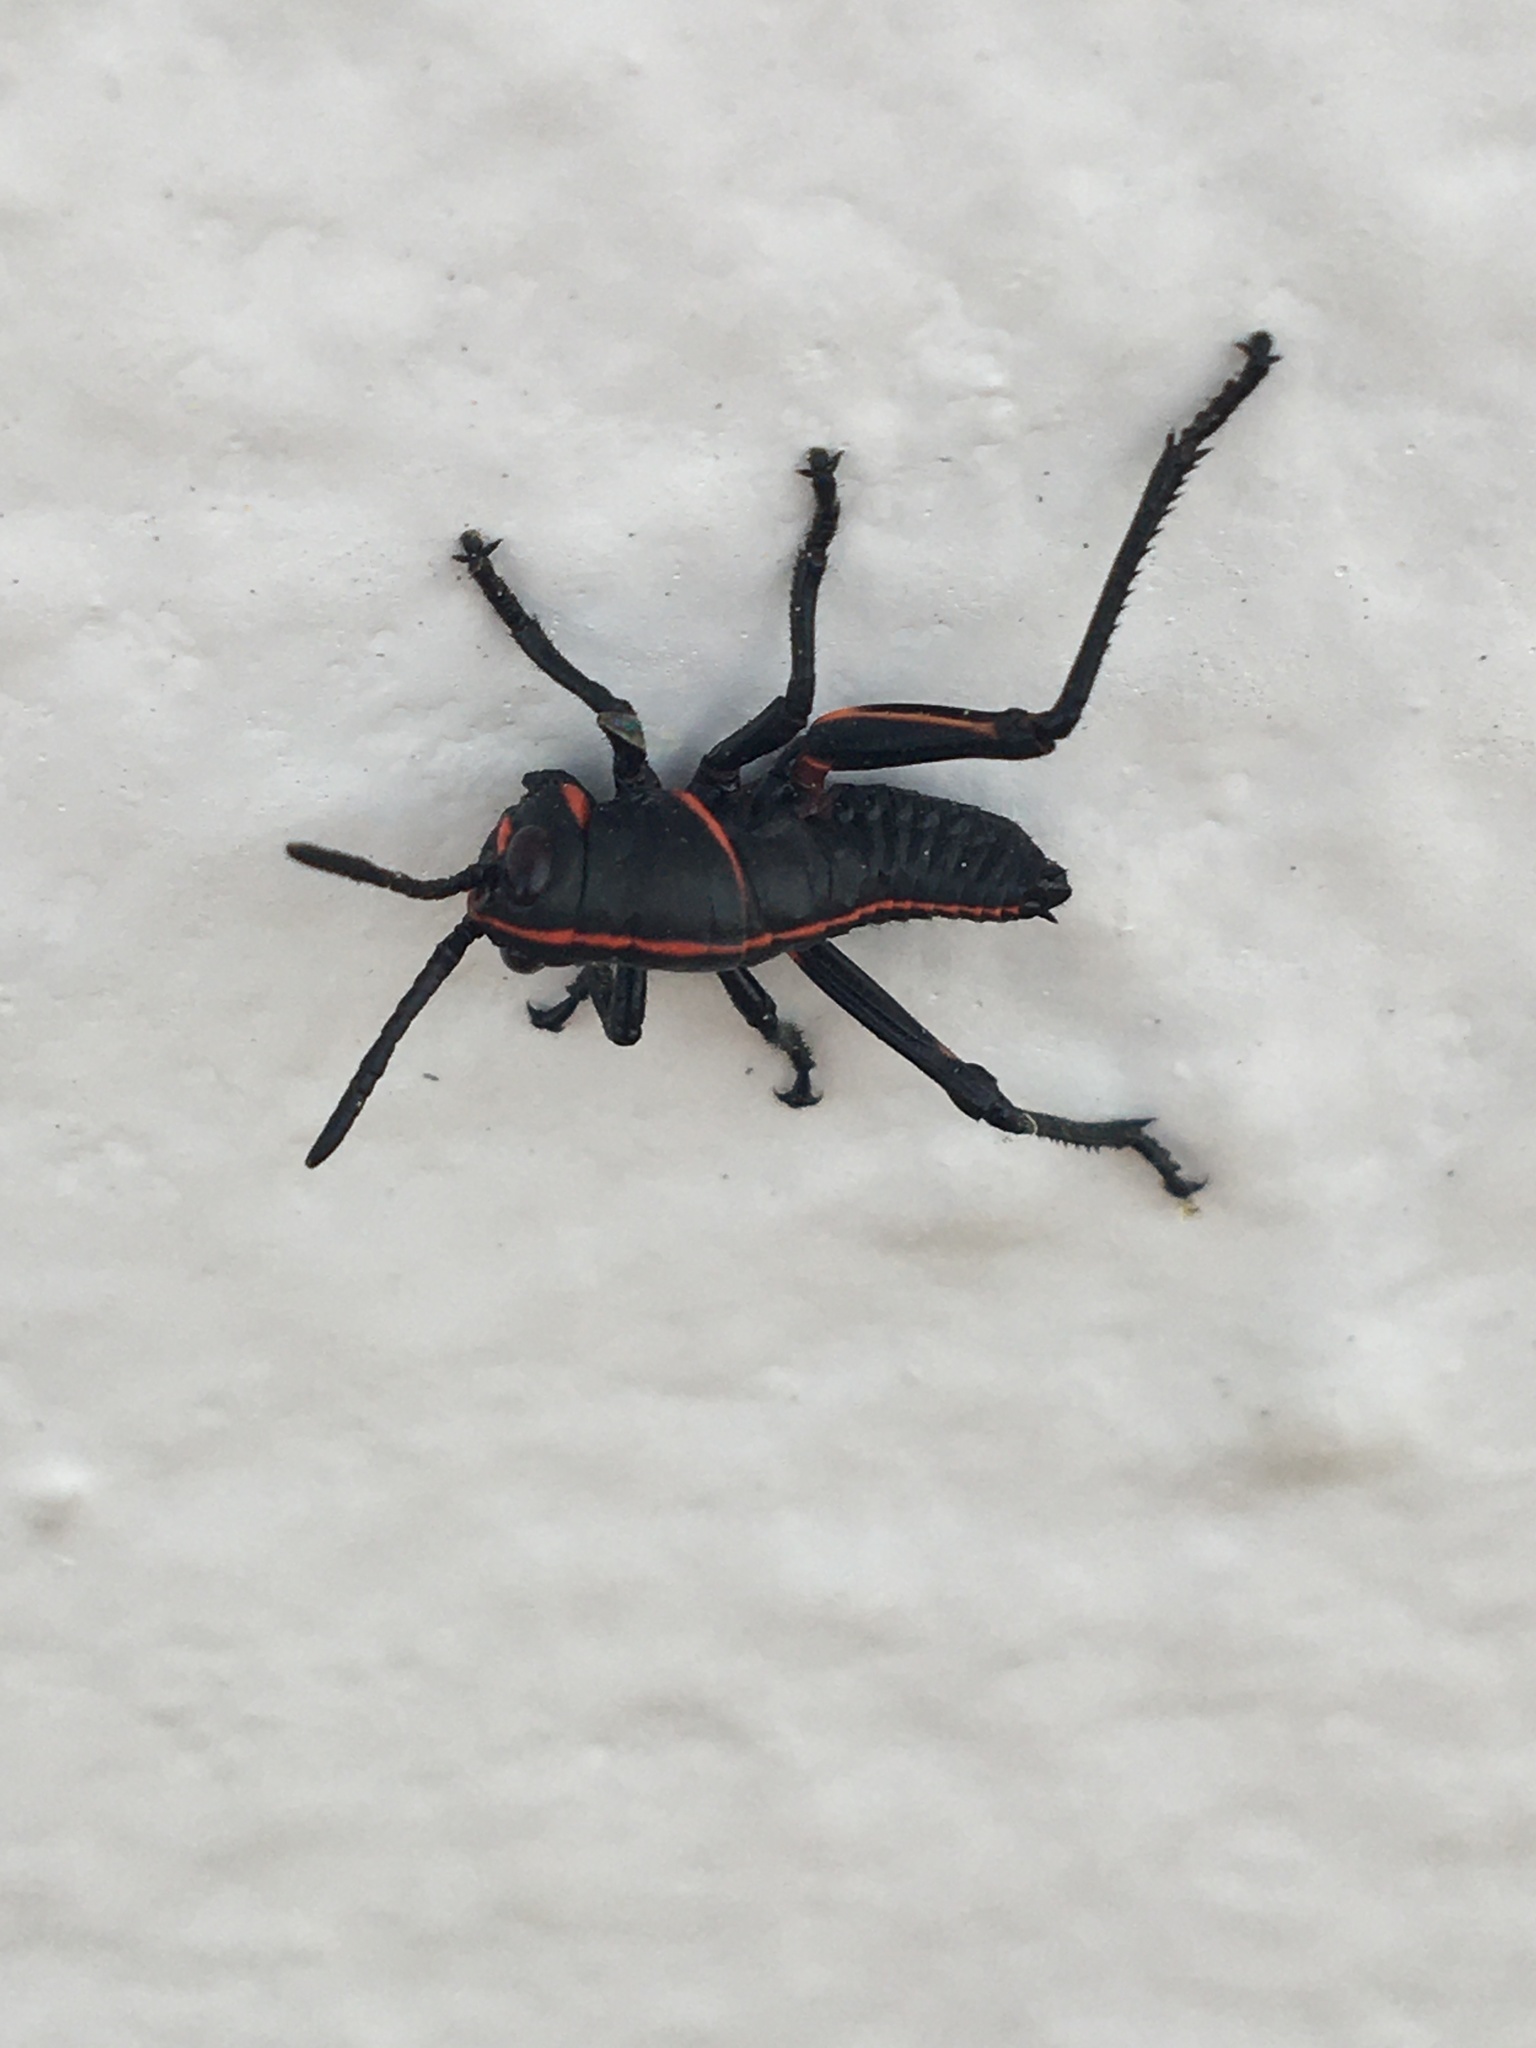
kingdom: Animalia
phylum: Arthropoda
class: Insecta
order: Orthoptera
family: Romaleidae
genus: Romalea
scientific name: Romalea microptera
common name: Eastern lubber grasshopper
